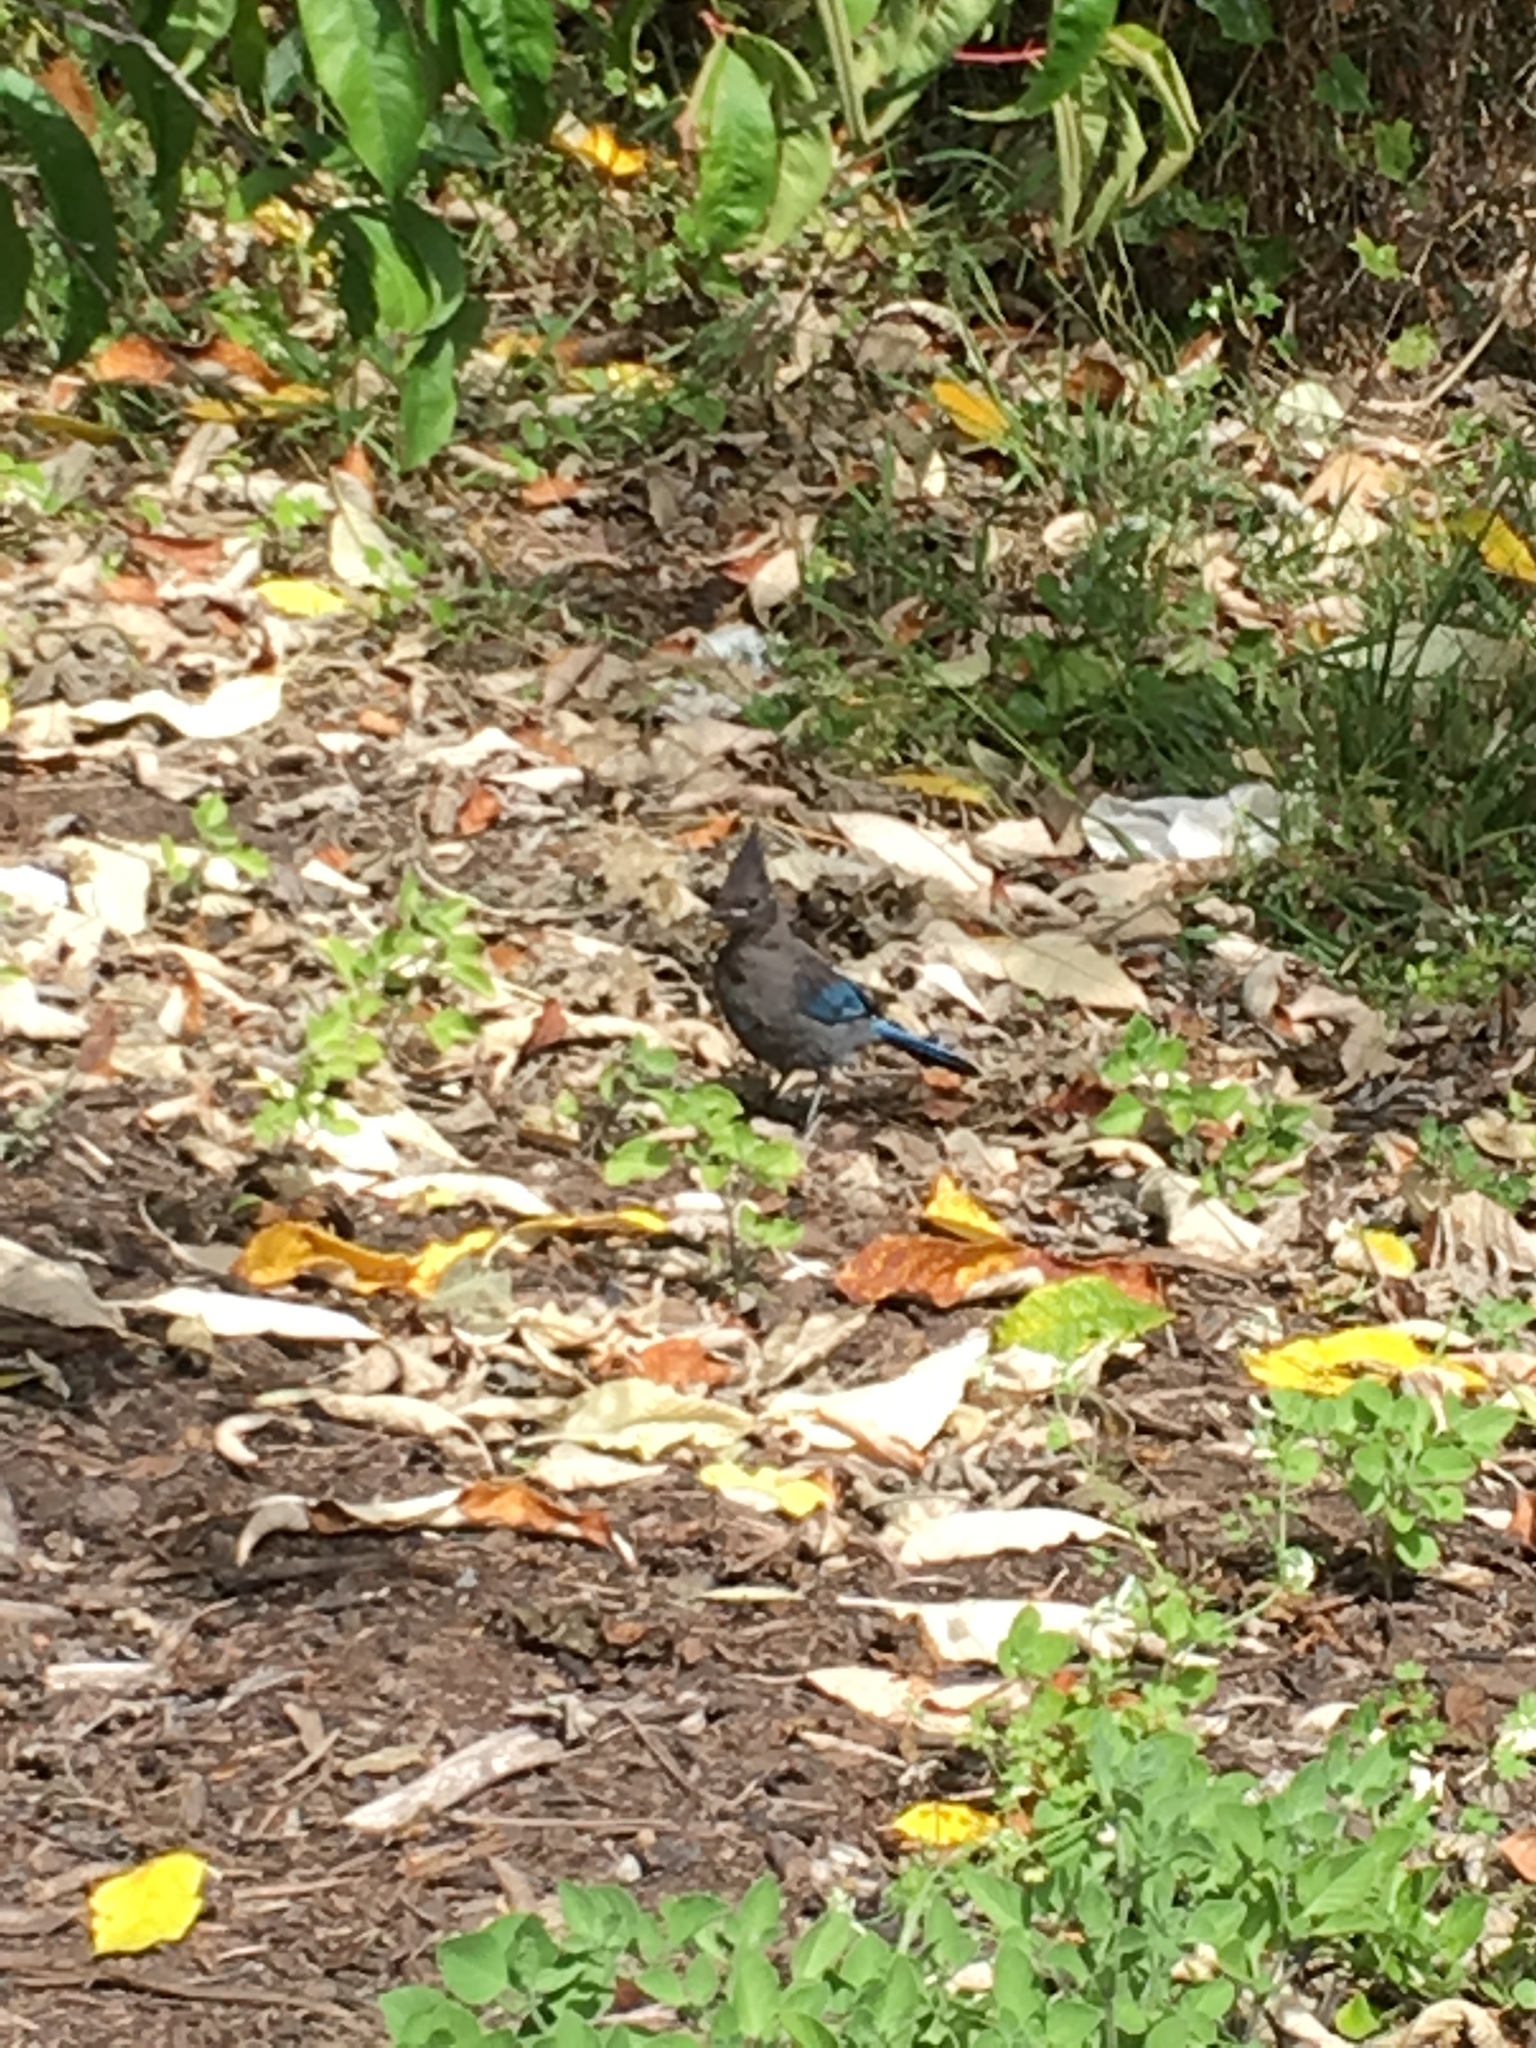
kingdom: Animalia
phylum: Chordata
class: Aves
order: Passeriformes
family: Corvidae
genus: Cyanocitta
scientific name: Cyanocitta stelleri
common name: Steller's jay
